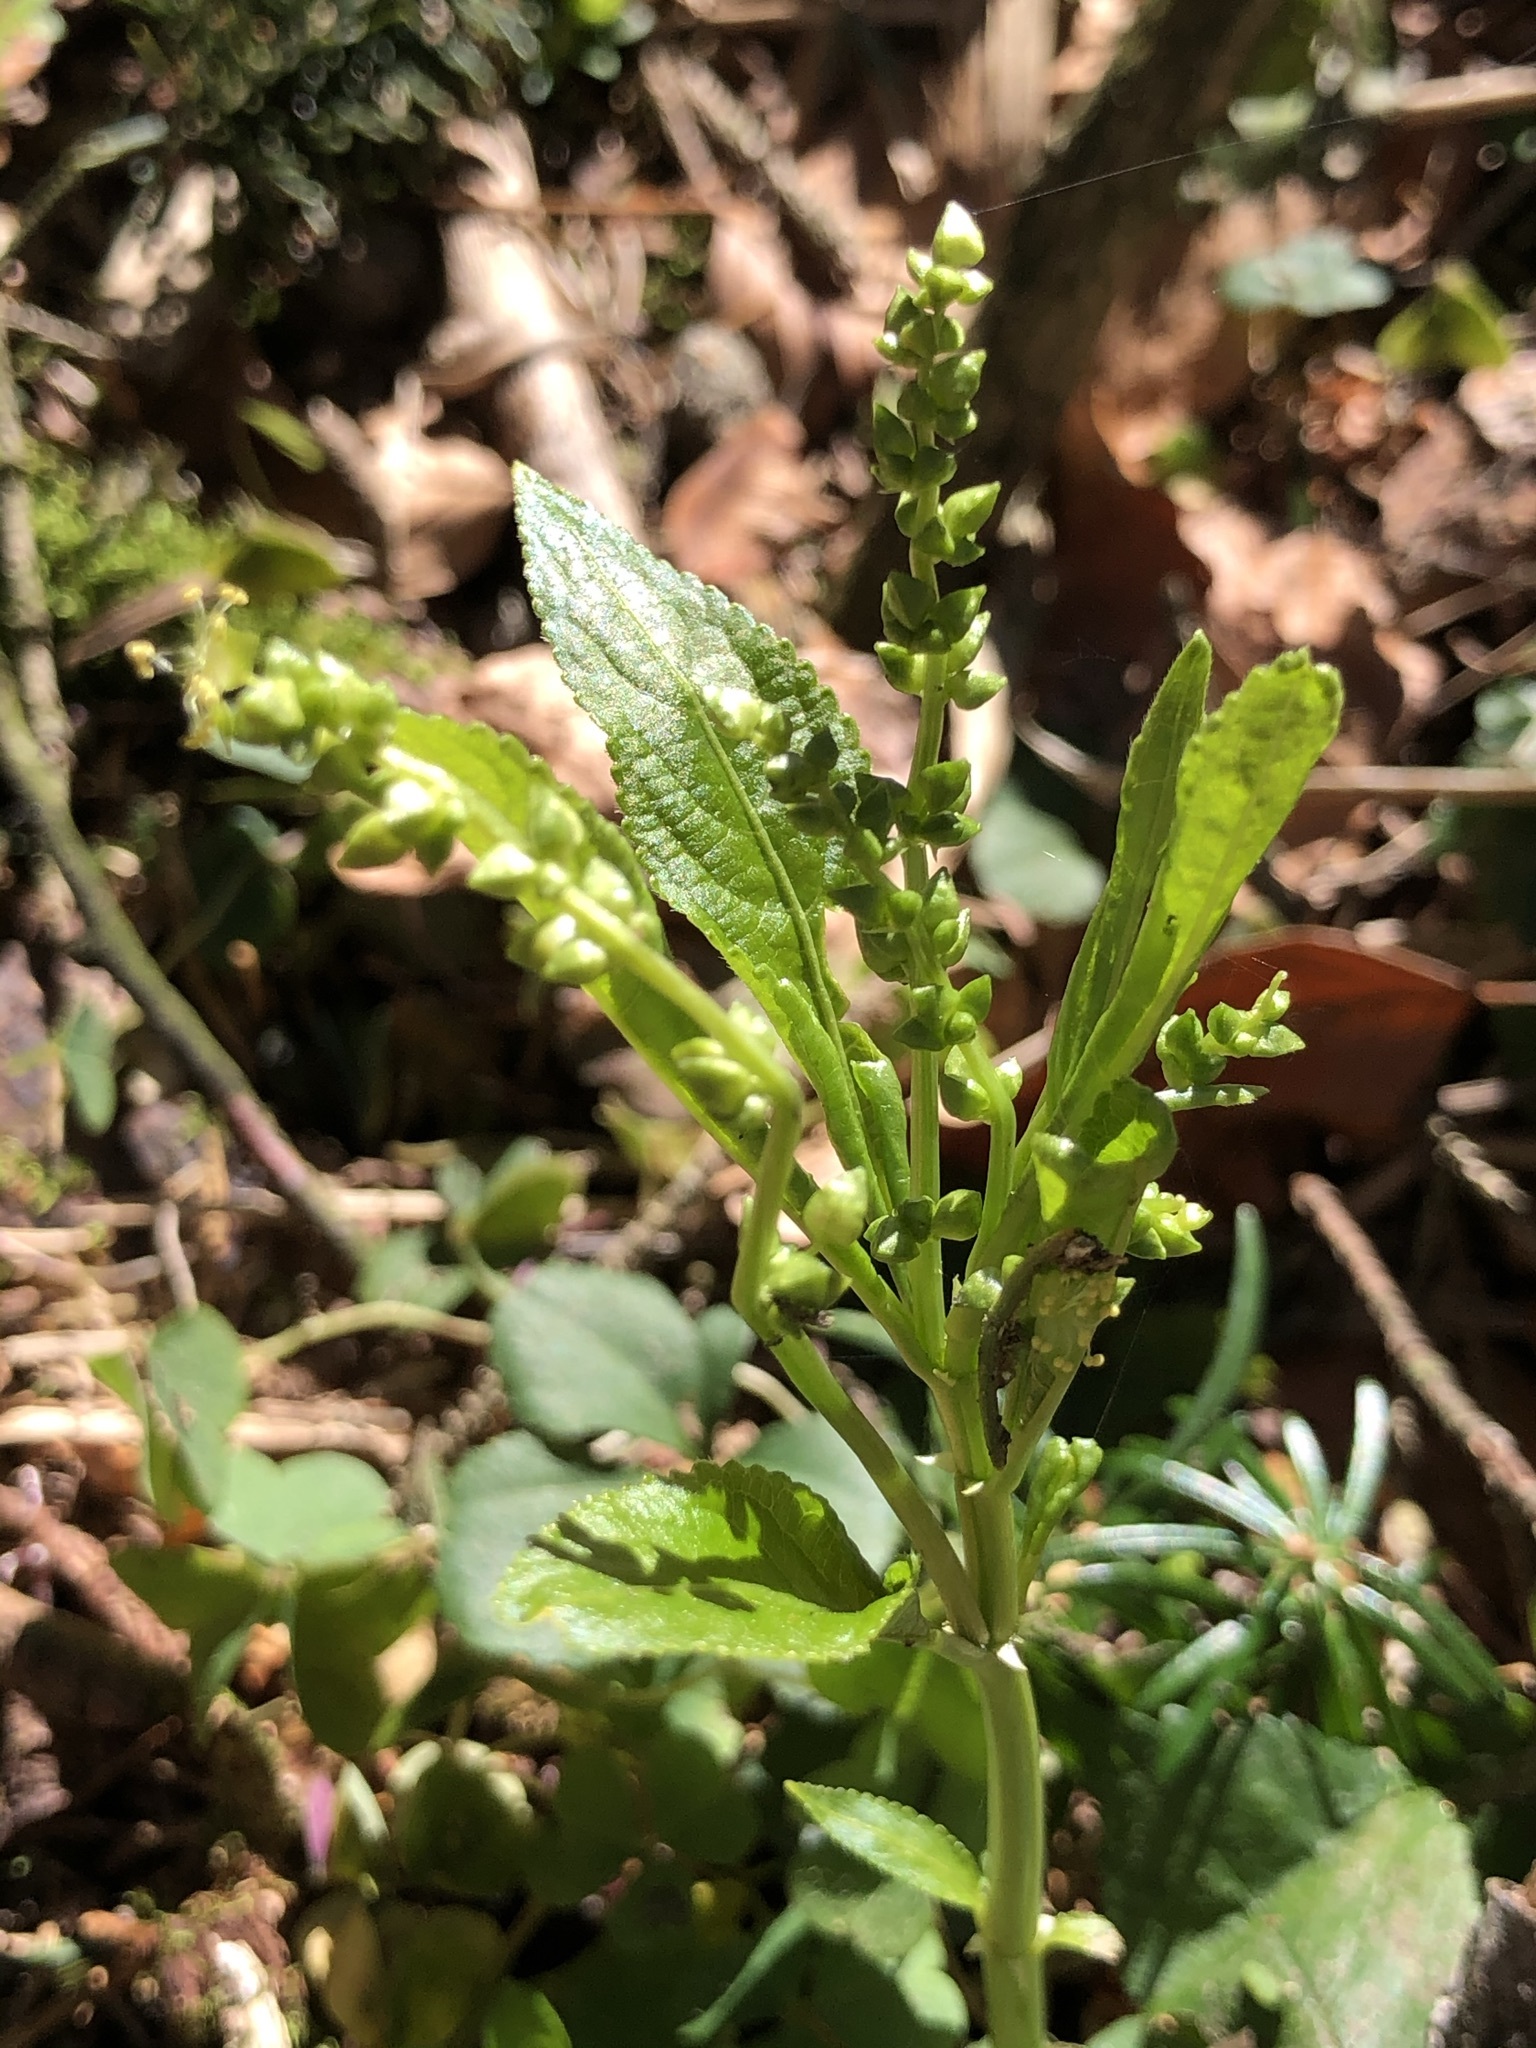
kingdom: Plantae
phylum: Tracheophyta
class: Magnoliopsida
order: Malpighiales
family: Euphorbiaceae
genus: Mercurialis
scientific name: Mercurialis perennis
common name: Dog mercury
